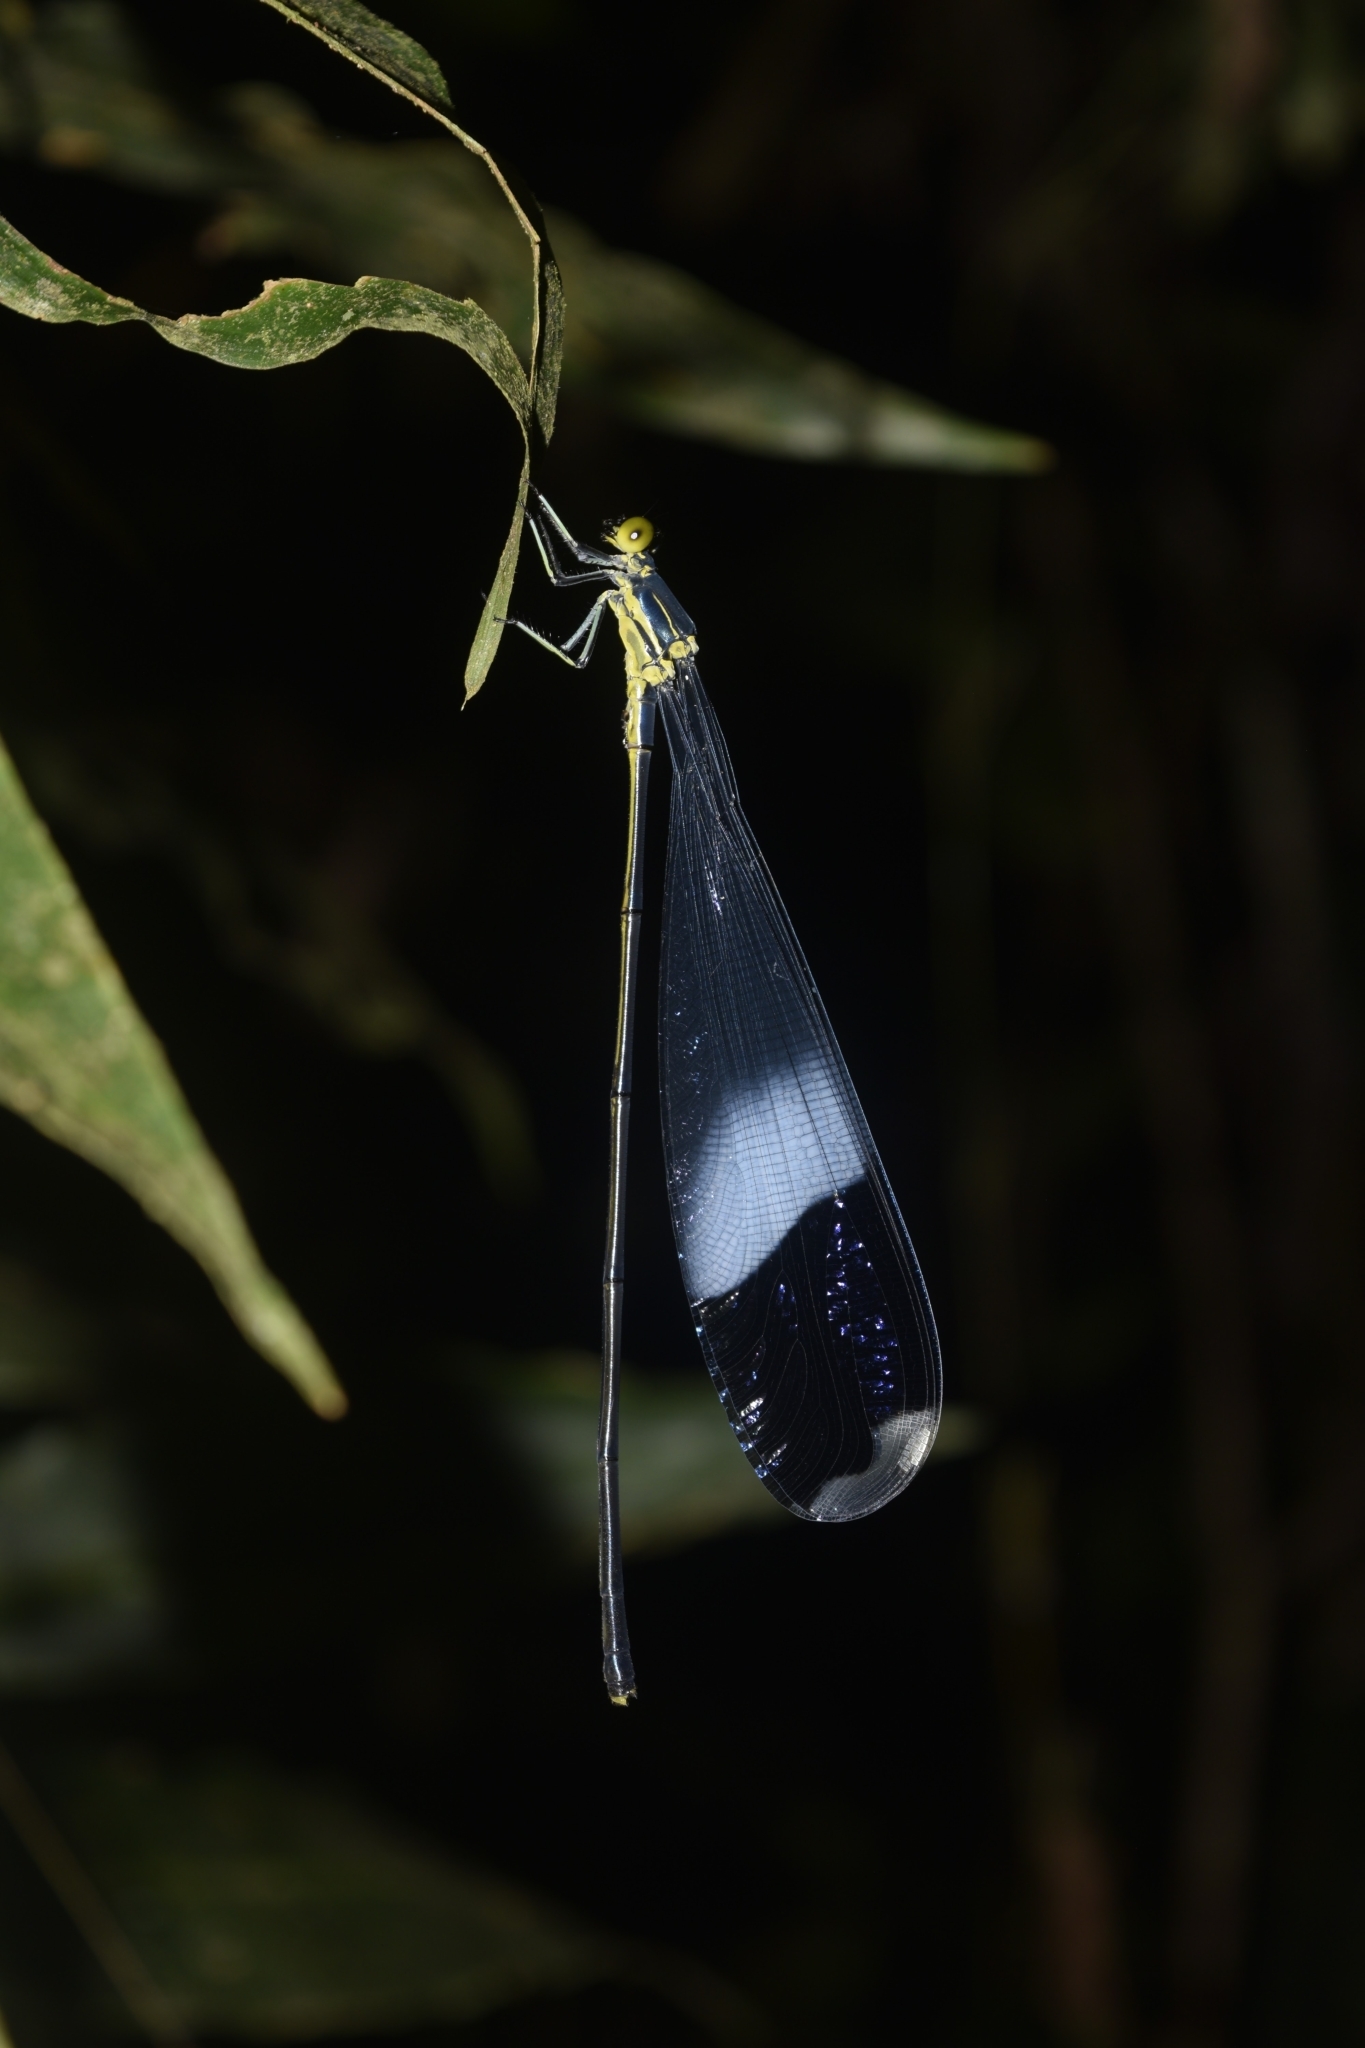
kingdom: Animalia
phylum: Arthropoda
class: Insecta
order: Odonata
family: Coenagrionidae
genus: Megaloprepus
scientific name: Megaloprepus caerulatus
